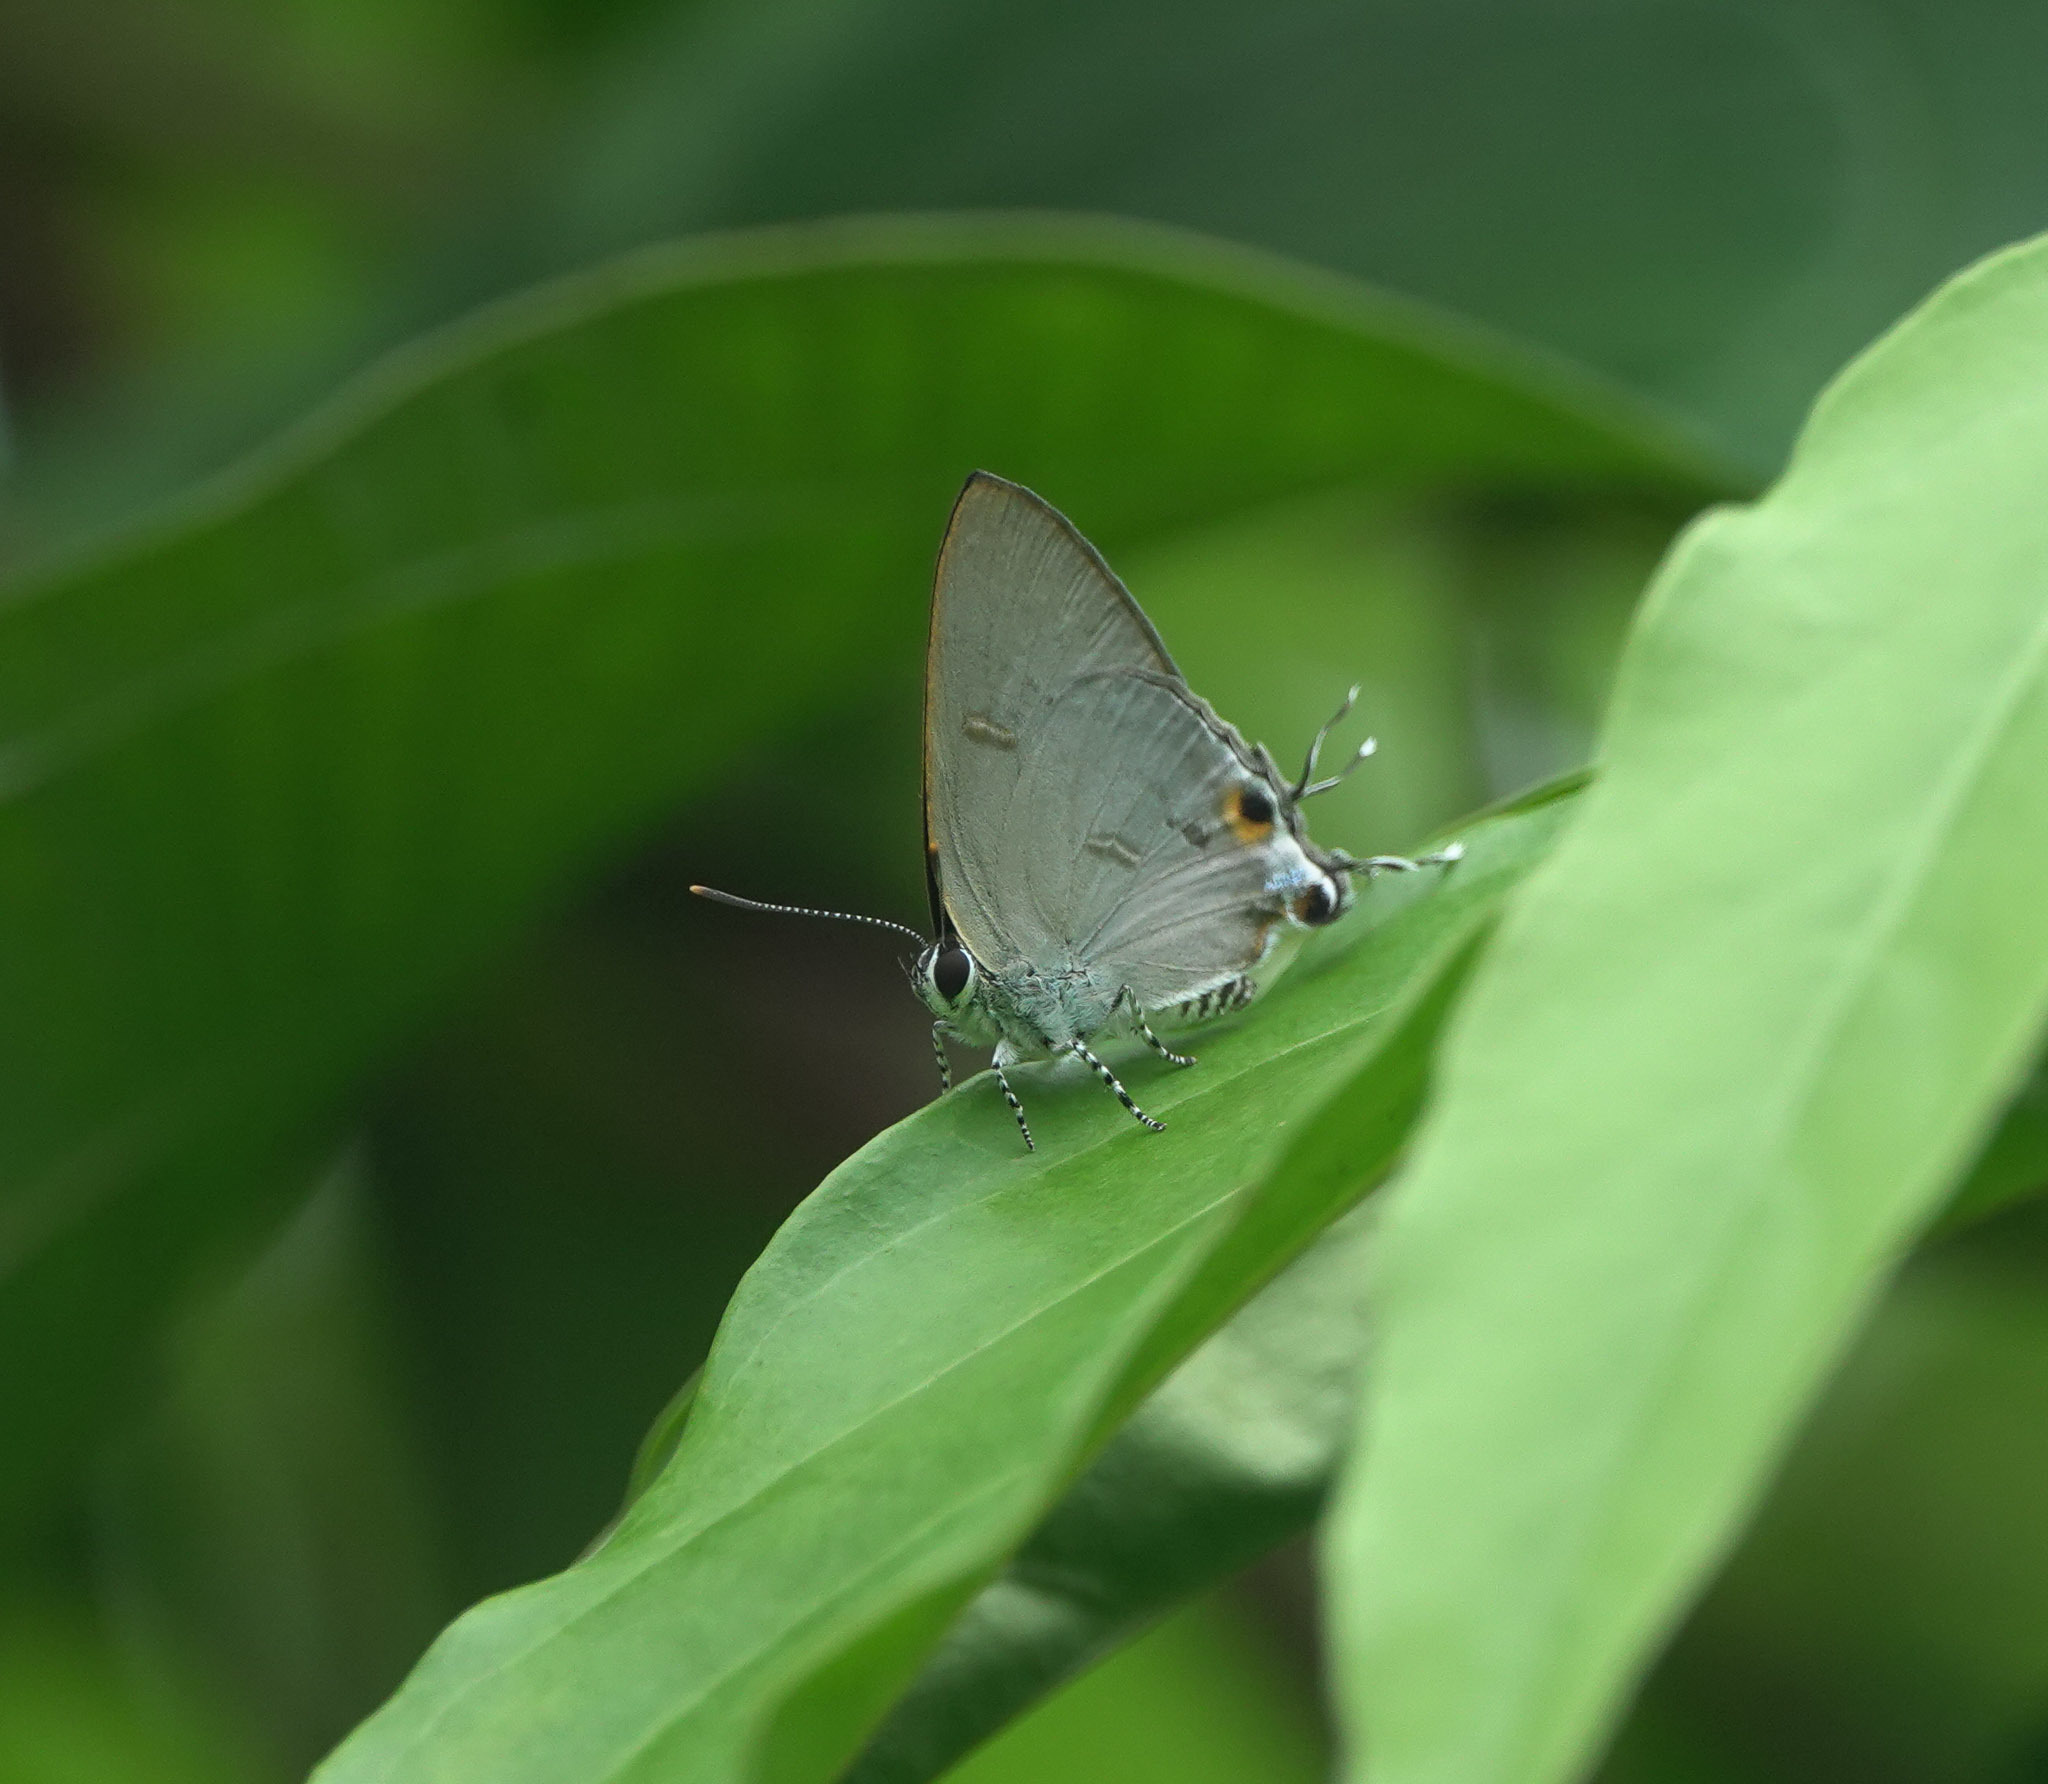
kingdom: Animalia
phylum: Arthropoda
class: Insecta
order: Lepidoptera
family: Lycaenidae
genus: Hypolycaena
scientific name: Hypolycaena erylus
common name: Common tit
